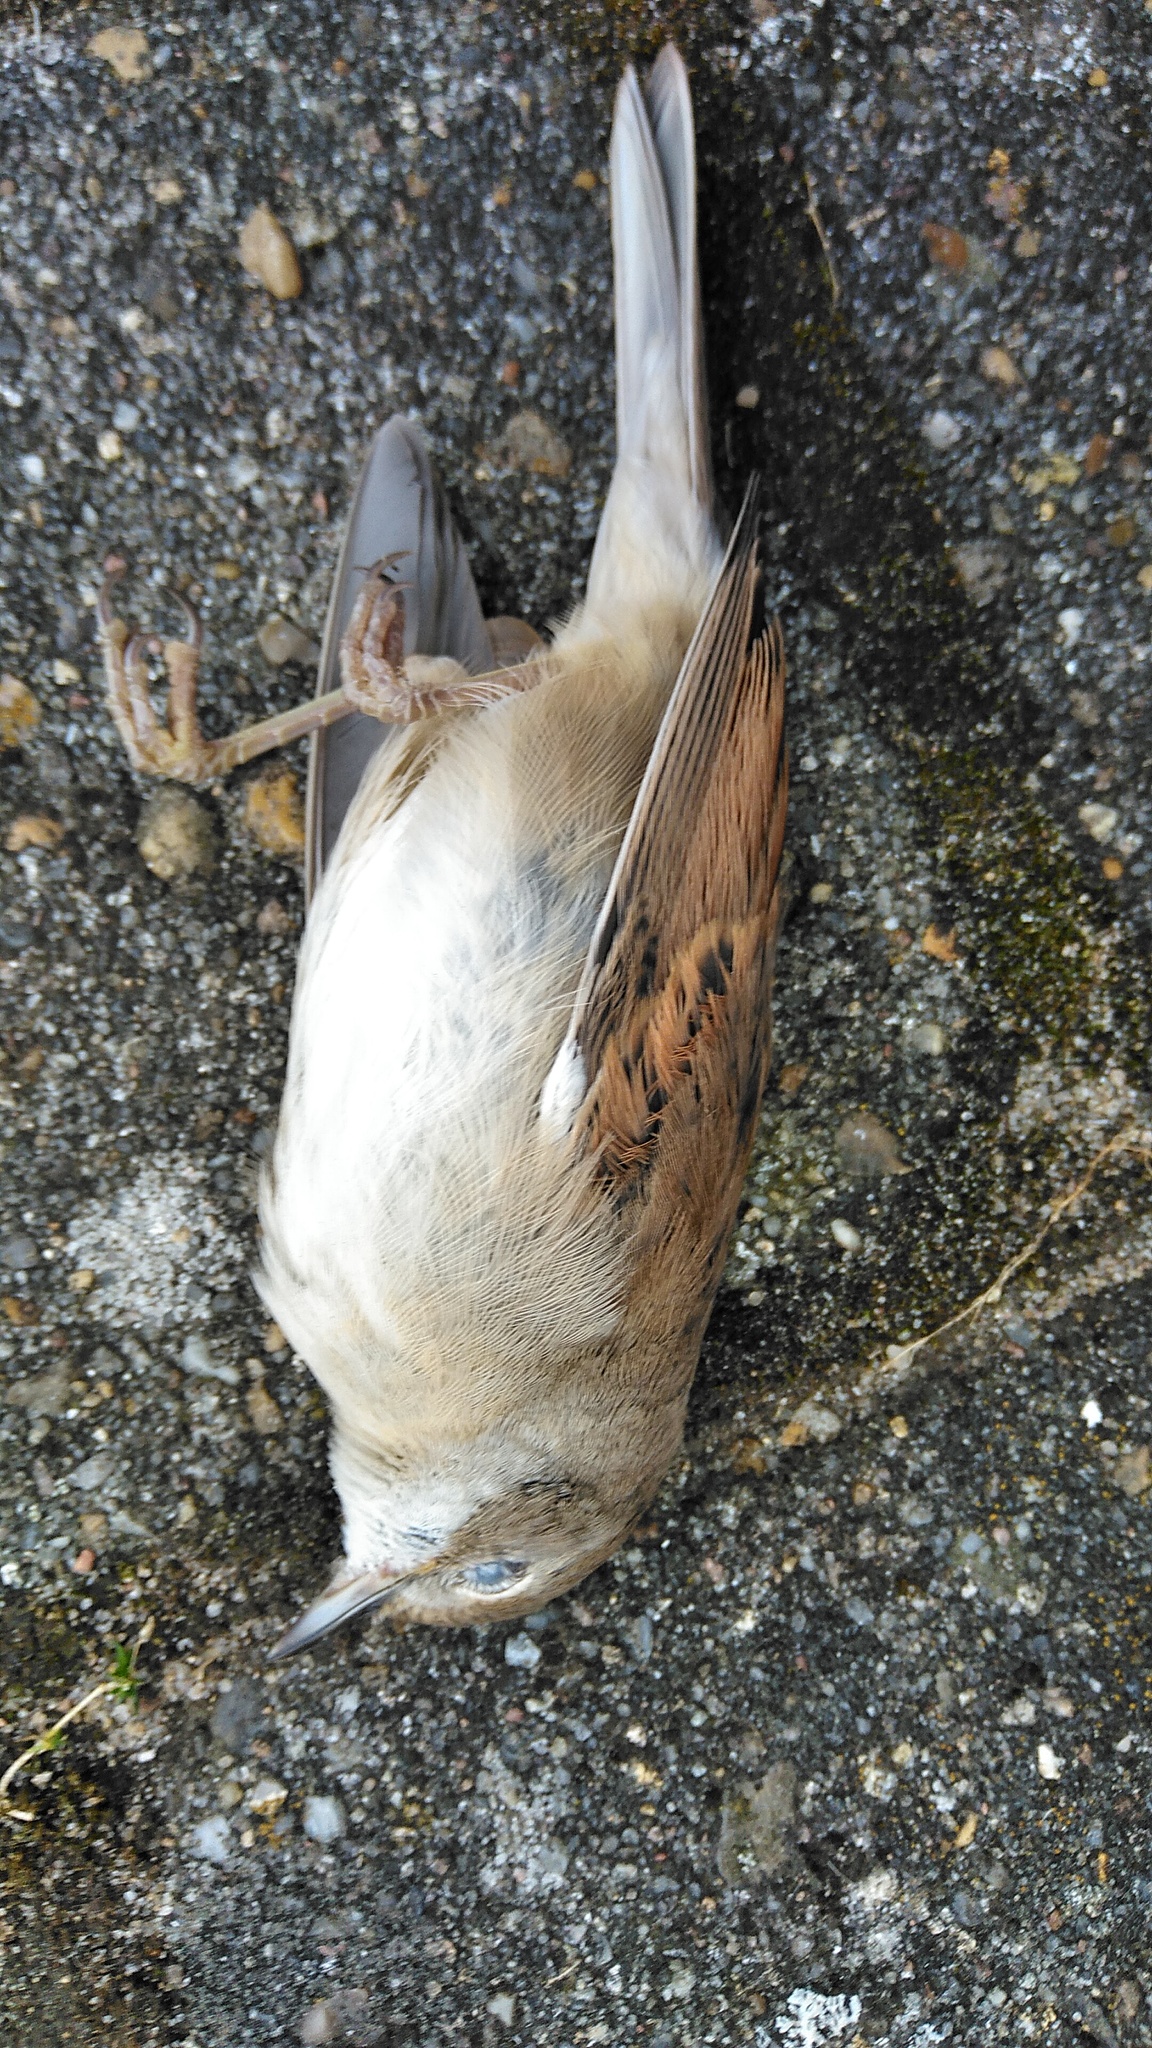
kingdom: Animalia
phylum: Chordata
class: Aves
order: Passeriformes
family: Sylviidae
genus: Sylvia
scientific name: Sylvia communis
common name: Common whitethroat
